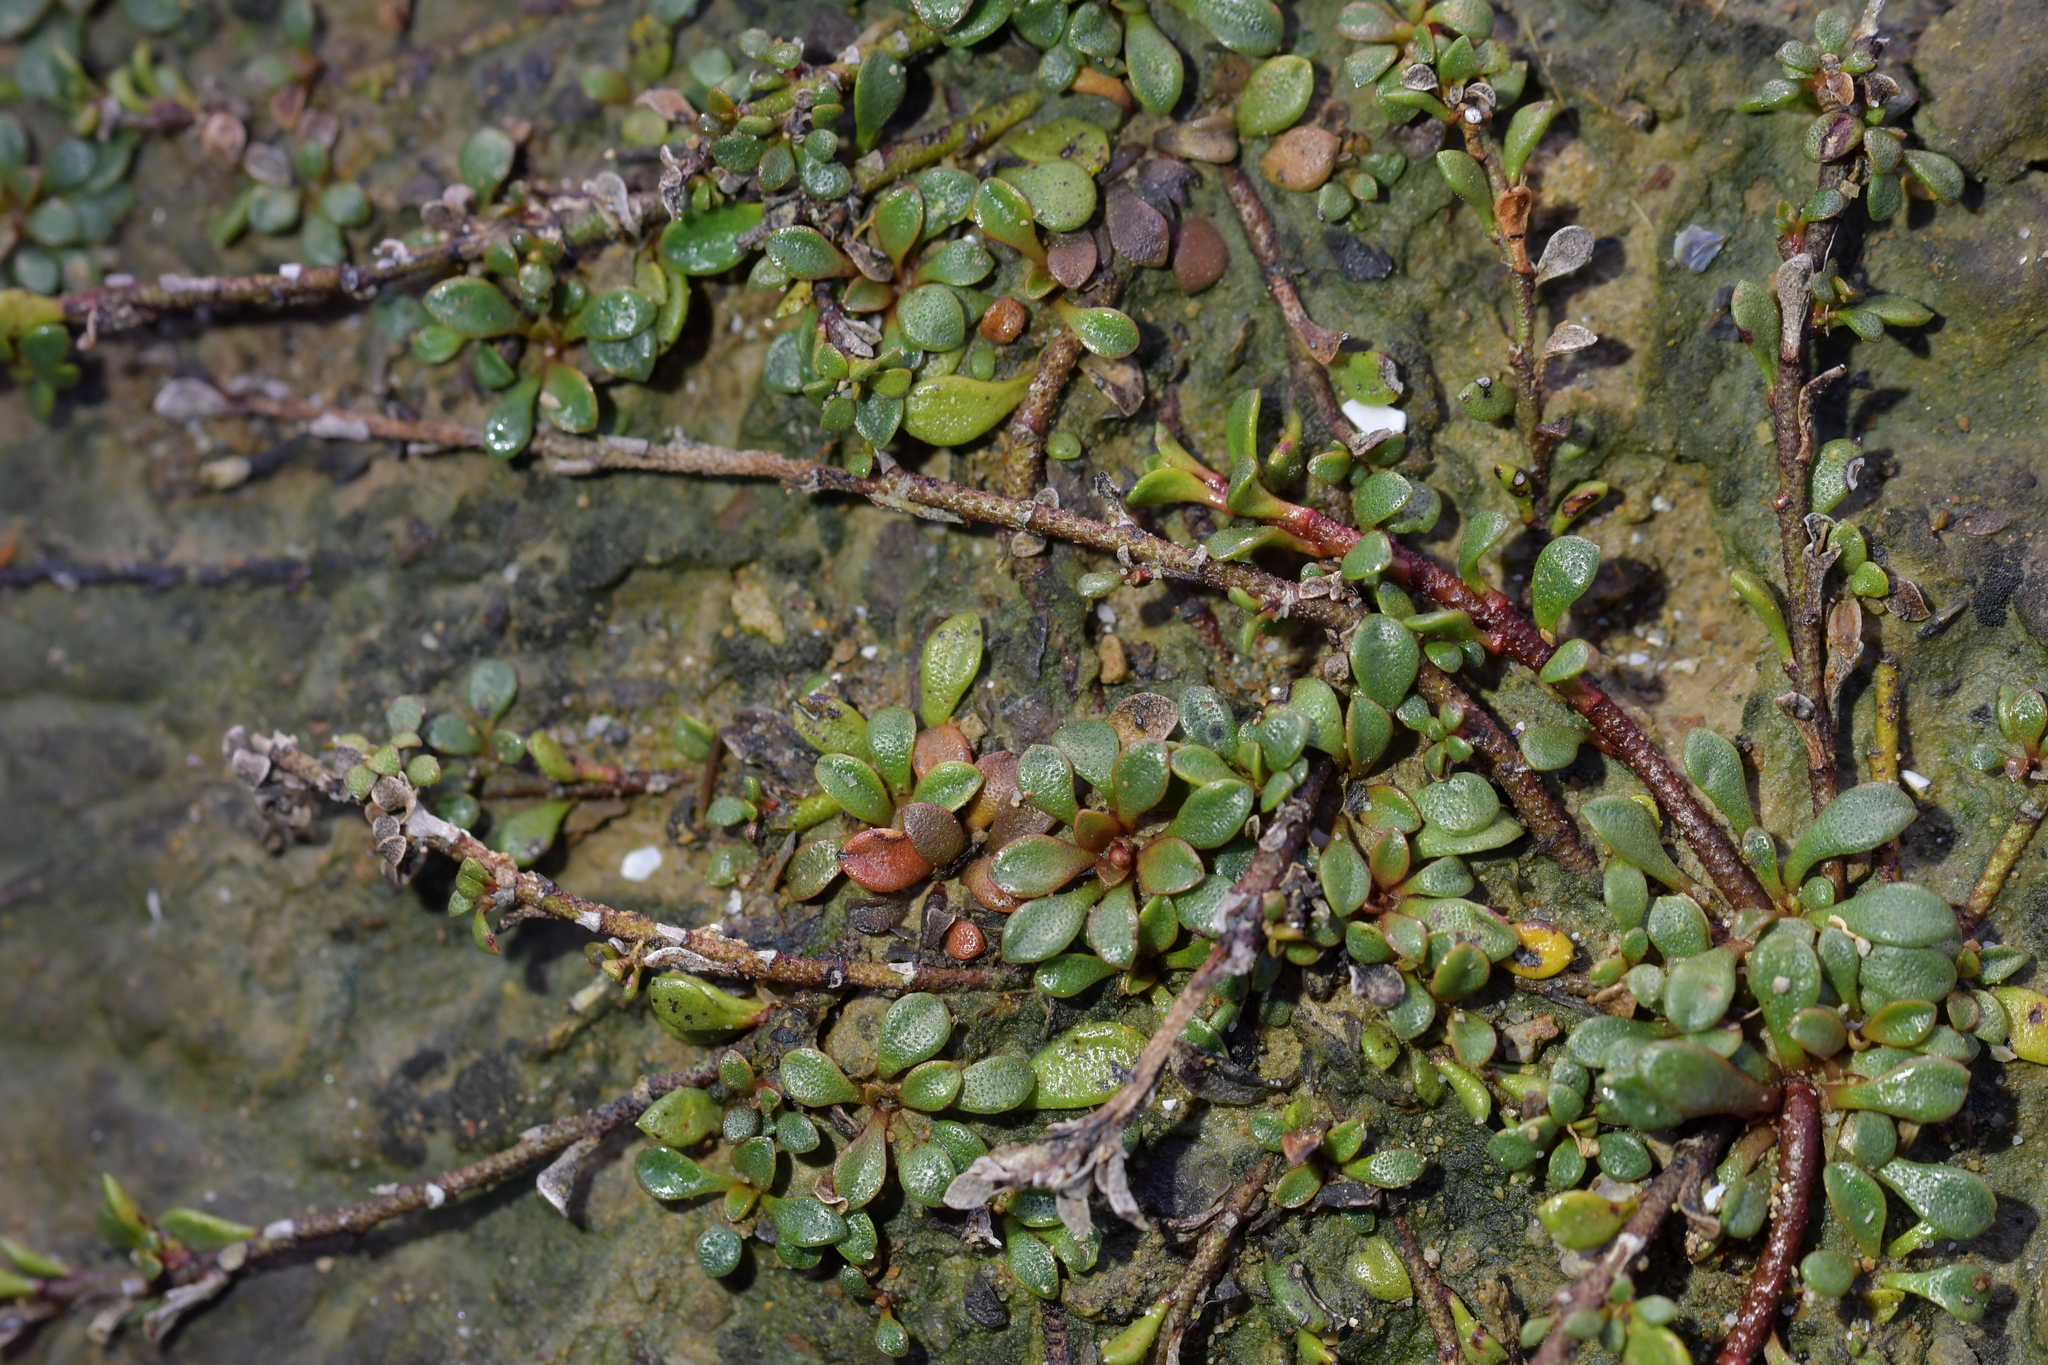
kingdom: Plantae
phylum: Tracheophyta
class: Magnoliopsida
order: Ericales
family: Primulaceae
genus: Samolus
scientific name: Samolus repens
